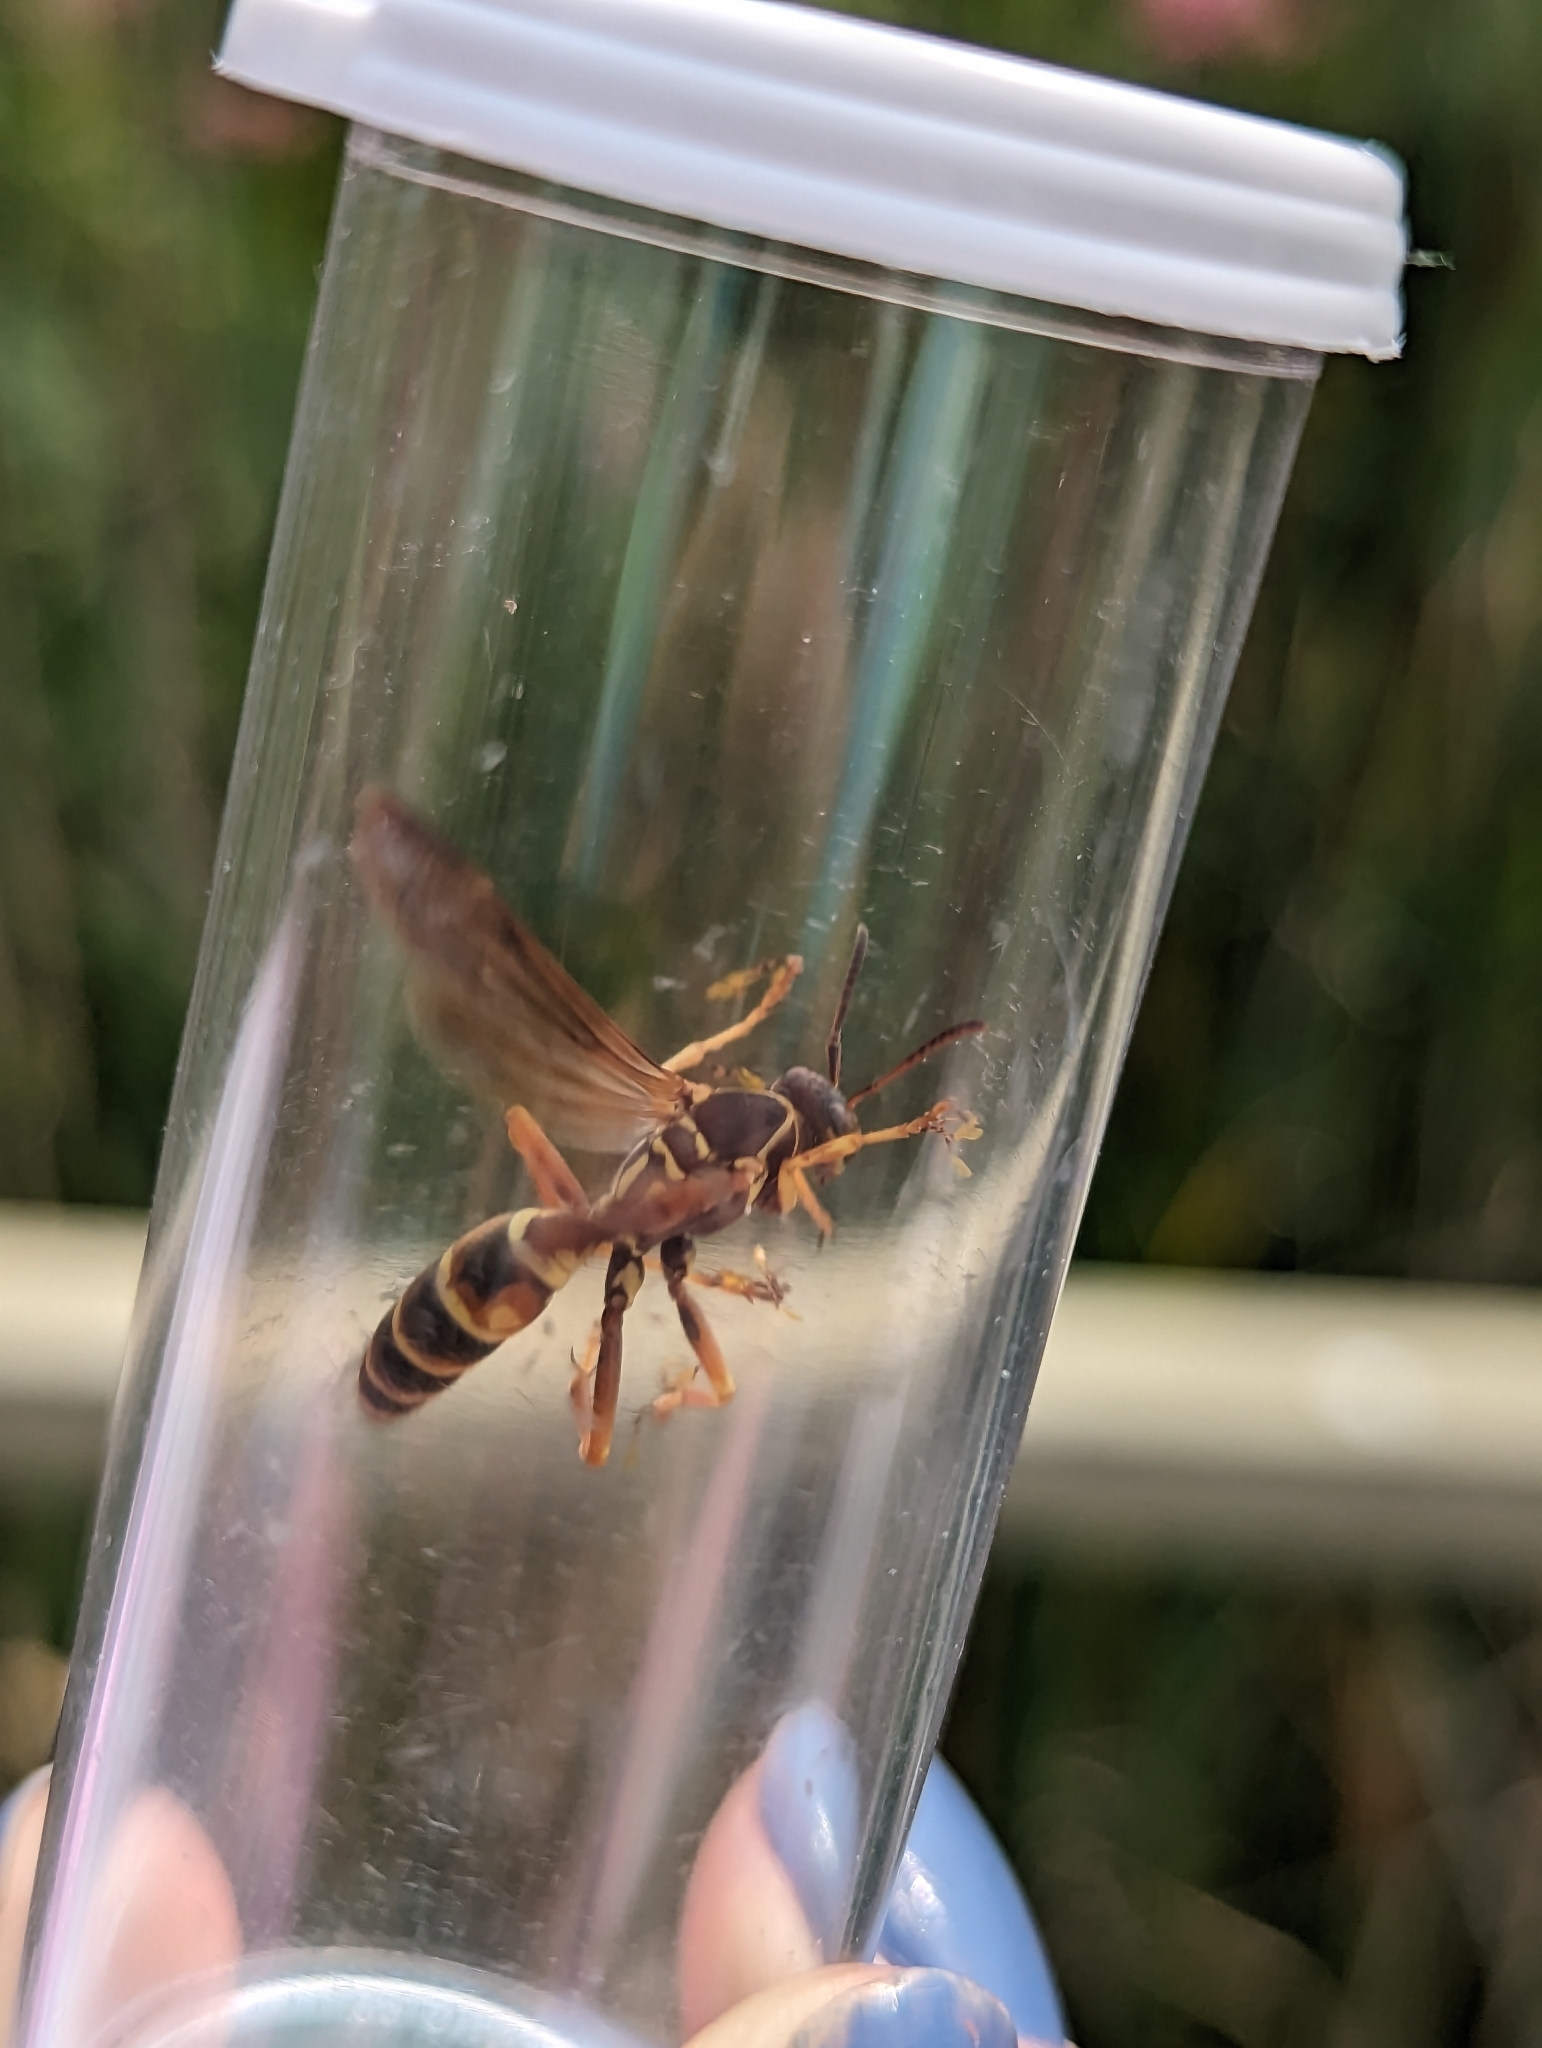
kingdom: Animalia
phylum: Arthropoda
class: Insecta
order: Hymenoptera
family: Eumenidae
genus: Polistes
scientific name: Polistes fuscatus
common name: Dark paper wasp
